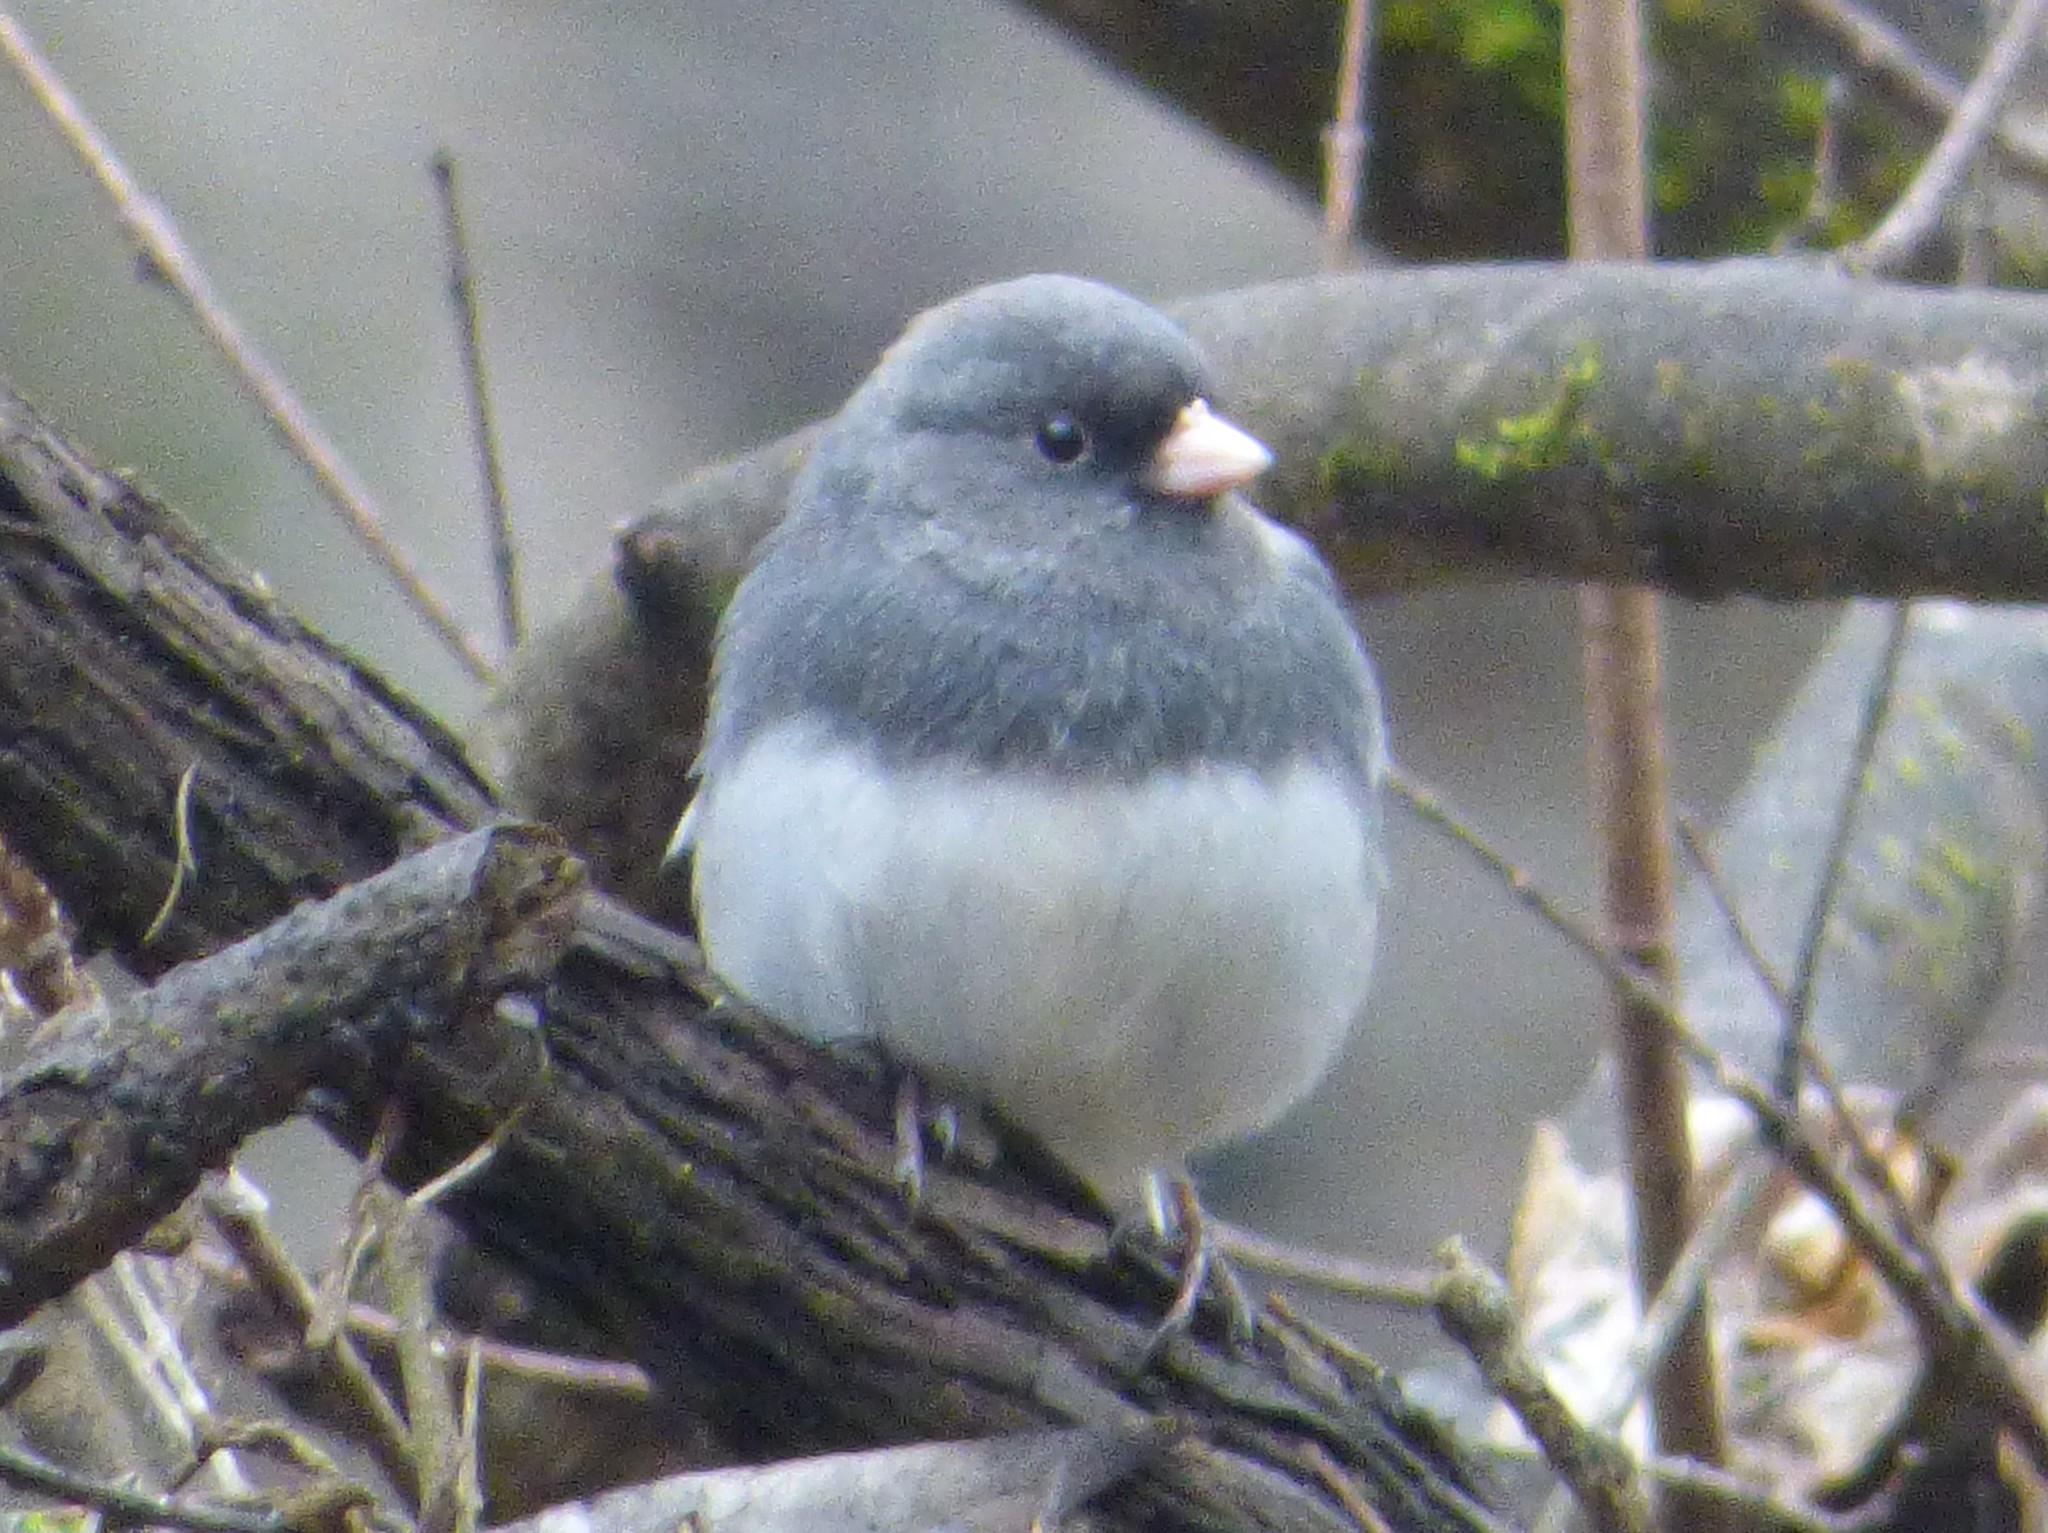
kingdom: Animalia
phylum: Chordata
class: Aves
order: Passeriformes
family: Passerellidae
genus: Junco
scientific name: Junco hyemalis
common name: Dark-eyed junco
